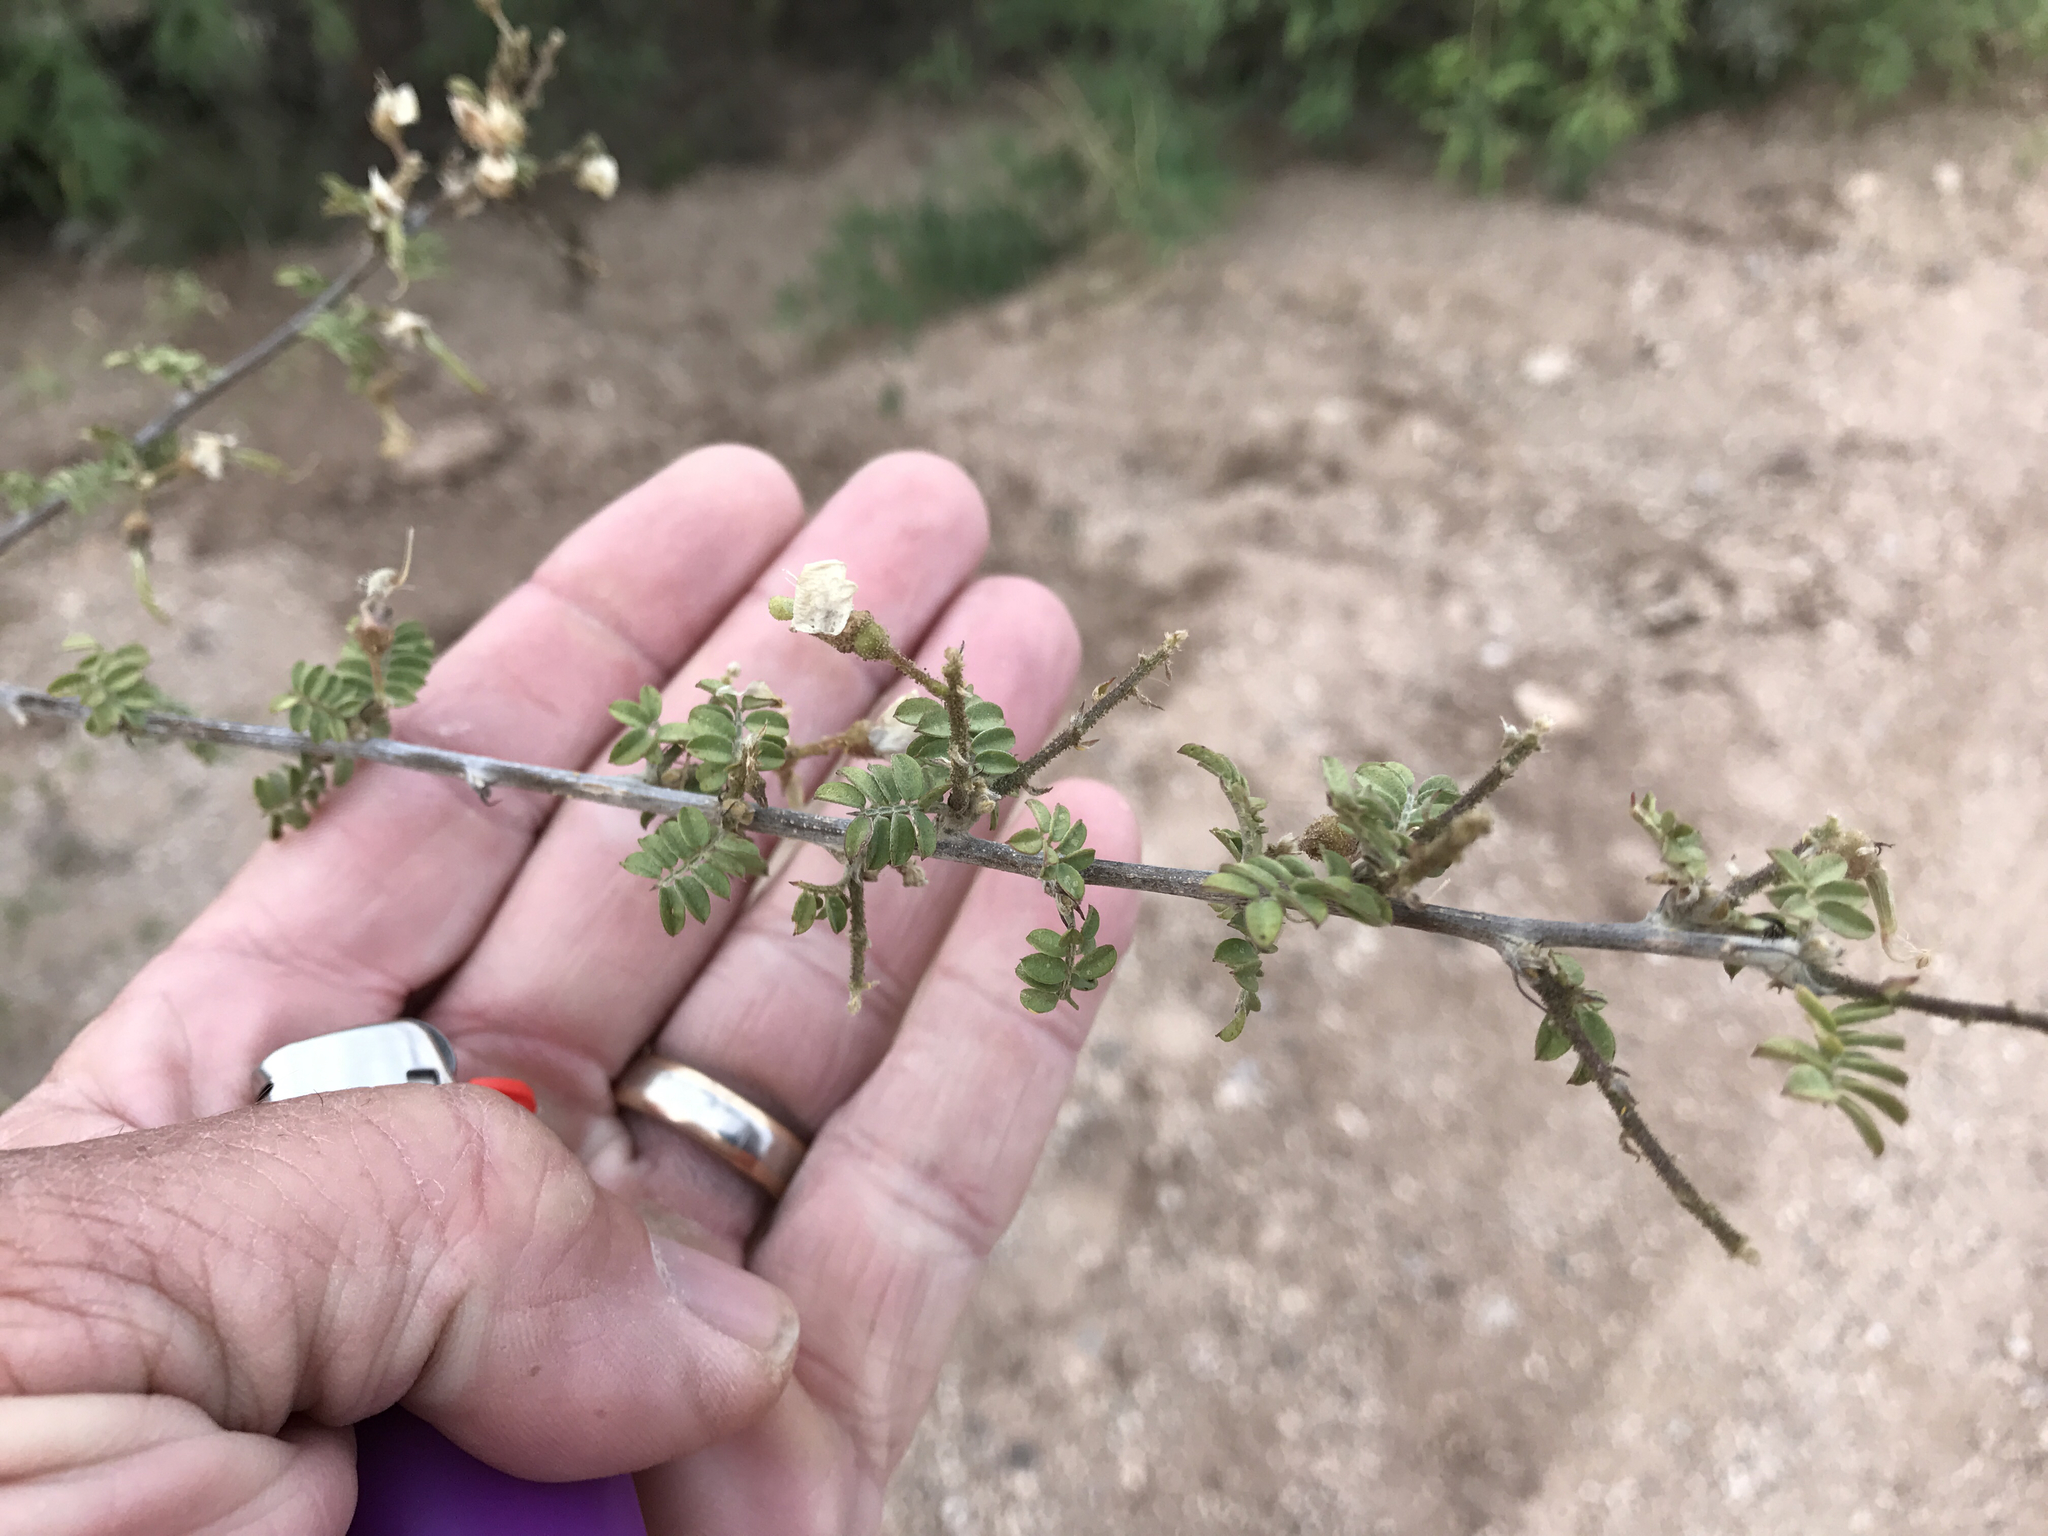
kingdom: Plantae
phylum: Tracheophyta
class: Magnoliopsida
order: Fabales
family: Fabaceae
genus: Vachellia
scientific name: Vachellia constricta
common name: Mescat acacia
